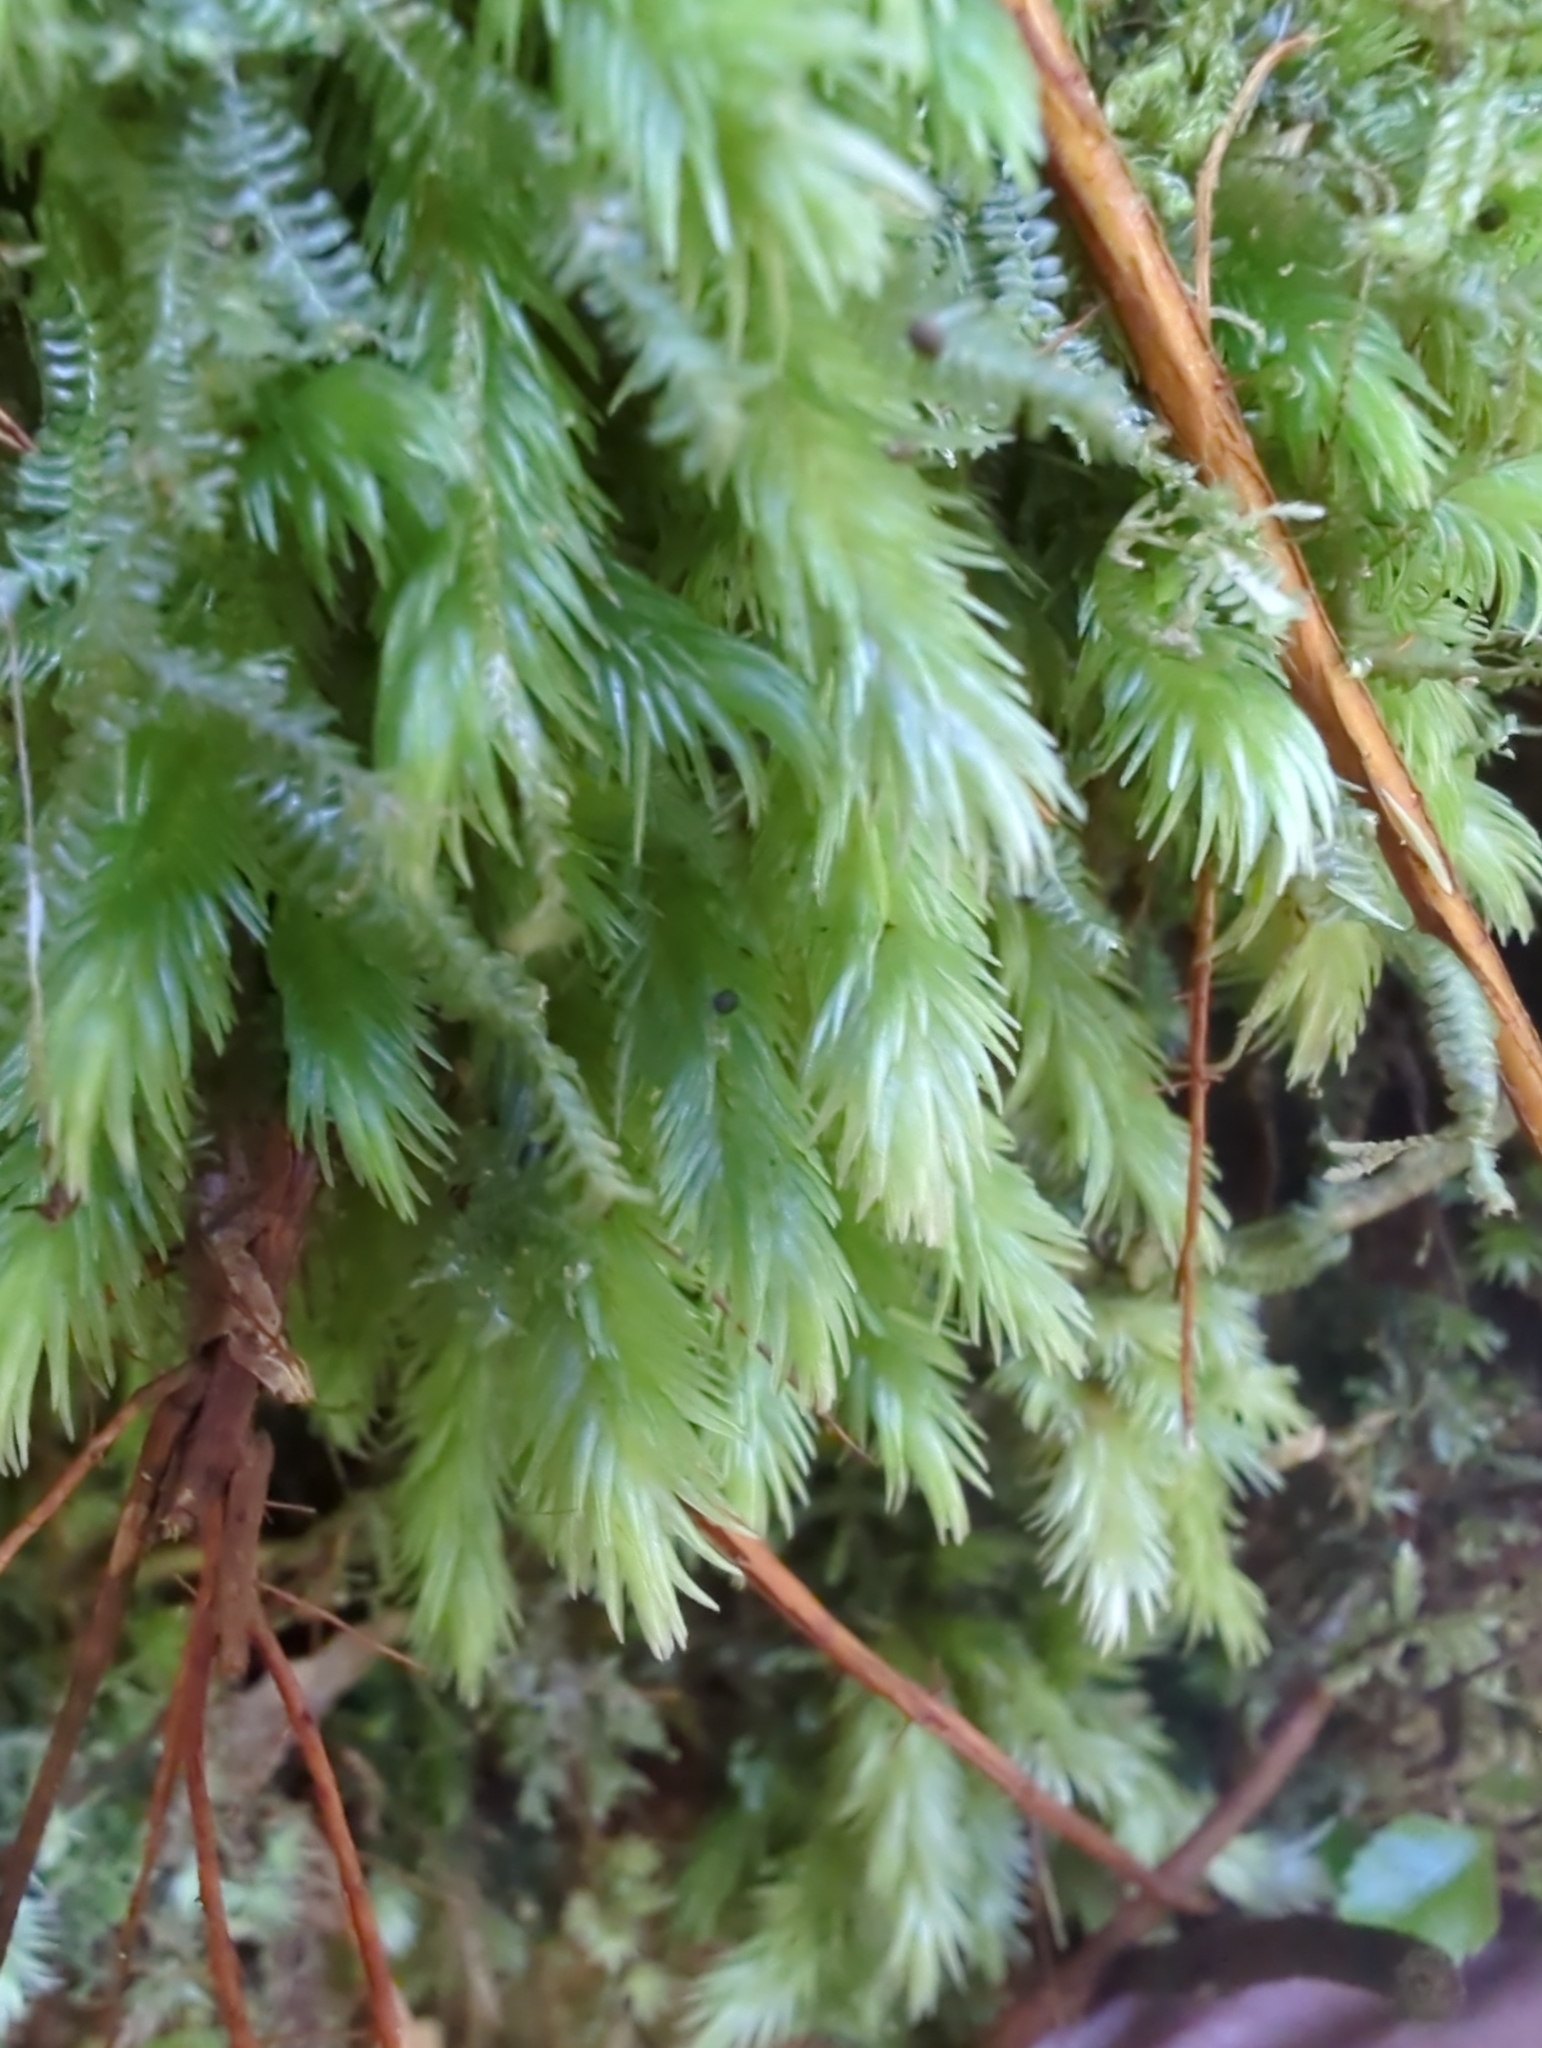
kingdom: Plantae
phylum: Bryophyta
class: Bryopsida
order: Dicranales
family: Leucobryaceae
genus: Leucobryum
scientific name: Leucobryum javense
